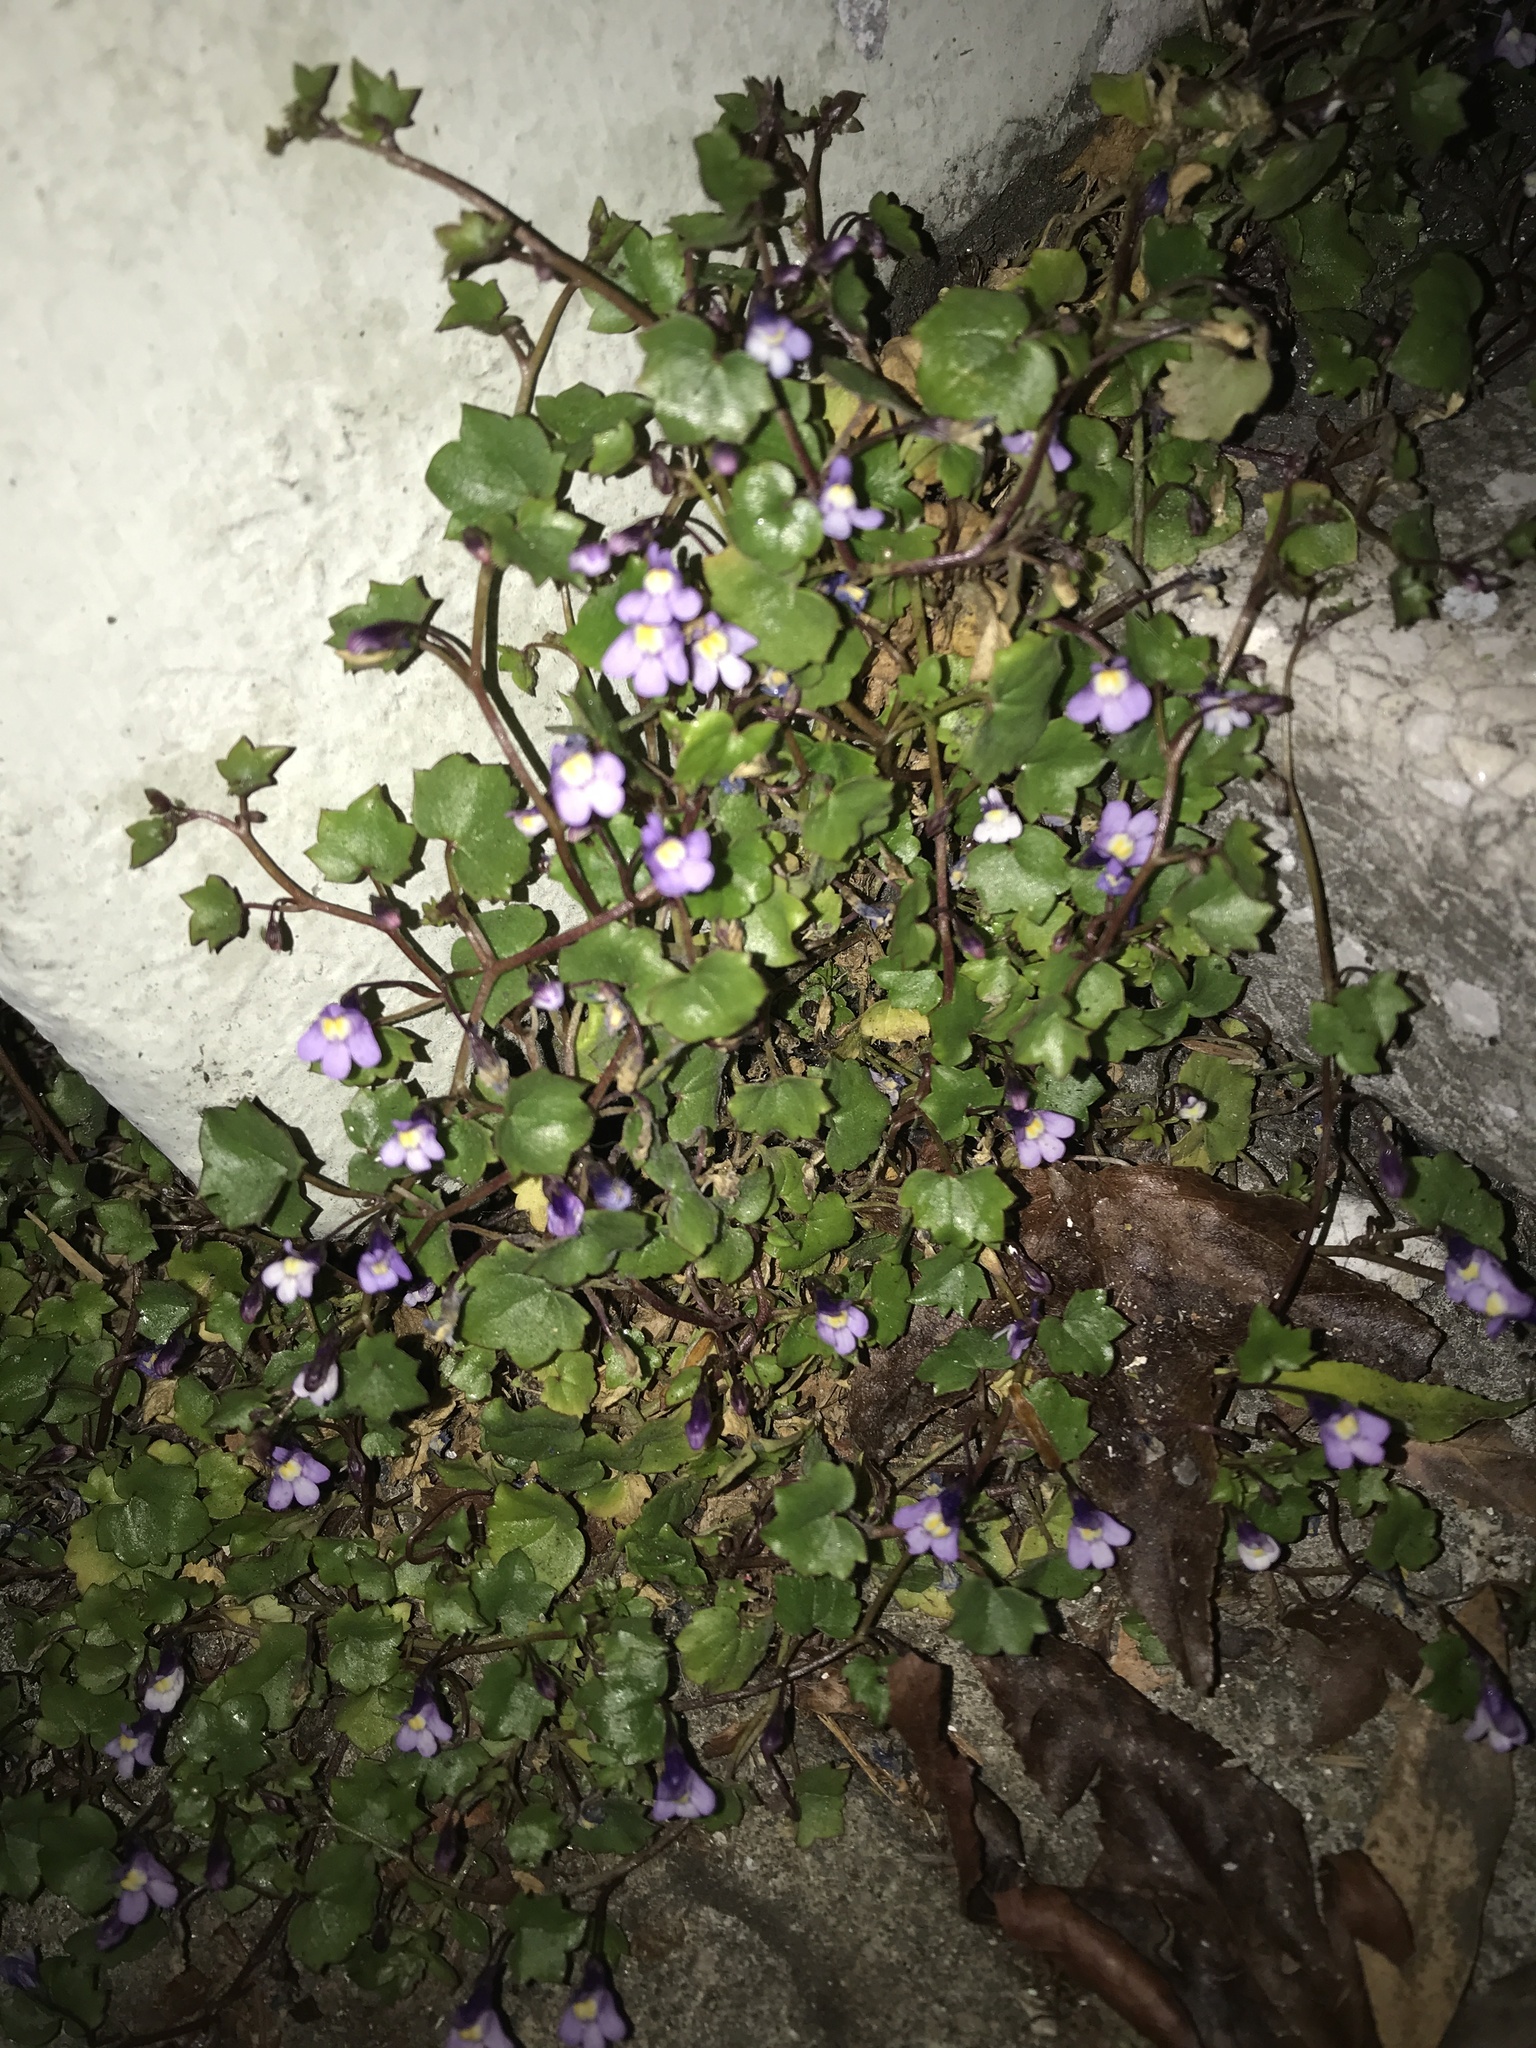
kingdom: Plantae
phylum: Tracheophyta
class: Magnoliopsida
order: Lamiales
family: Plantaginaceae
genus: Cymbalaria
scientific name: Cymbalaria muralis
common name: Ivy-leaved toadflax
